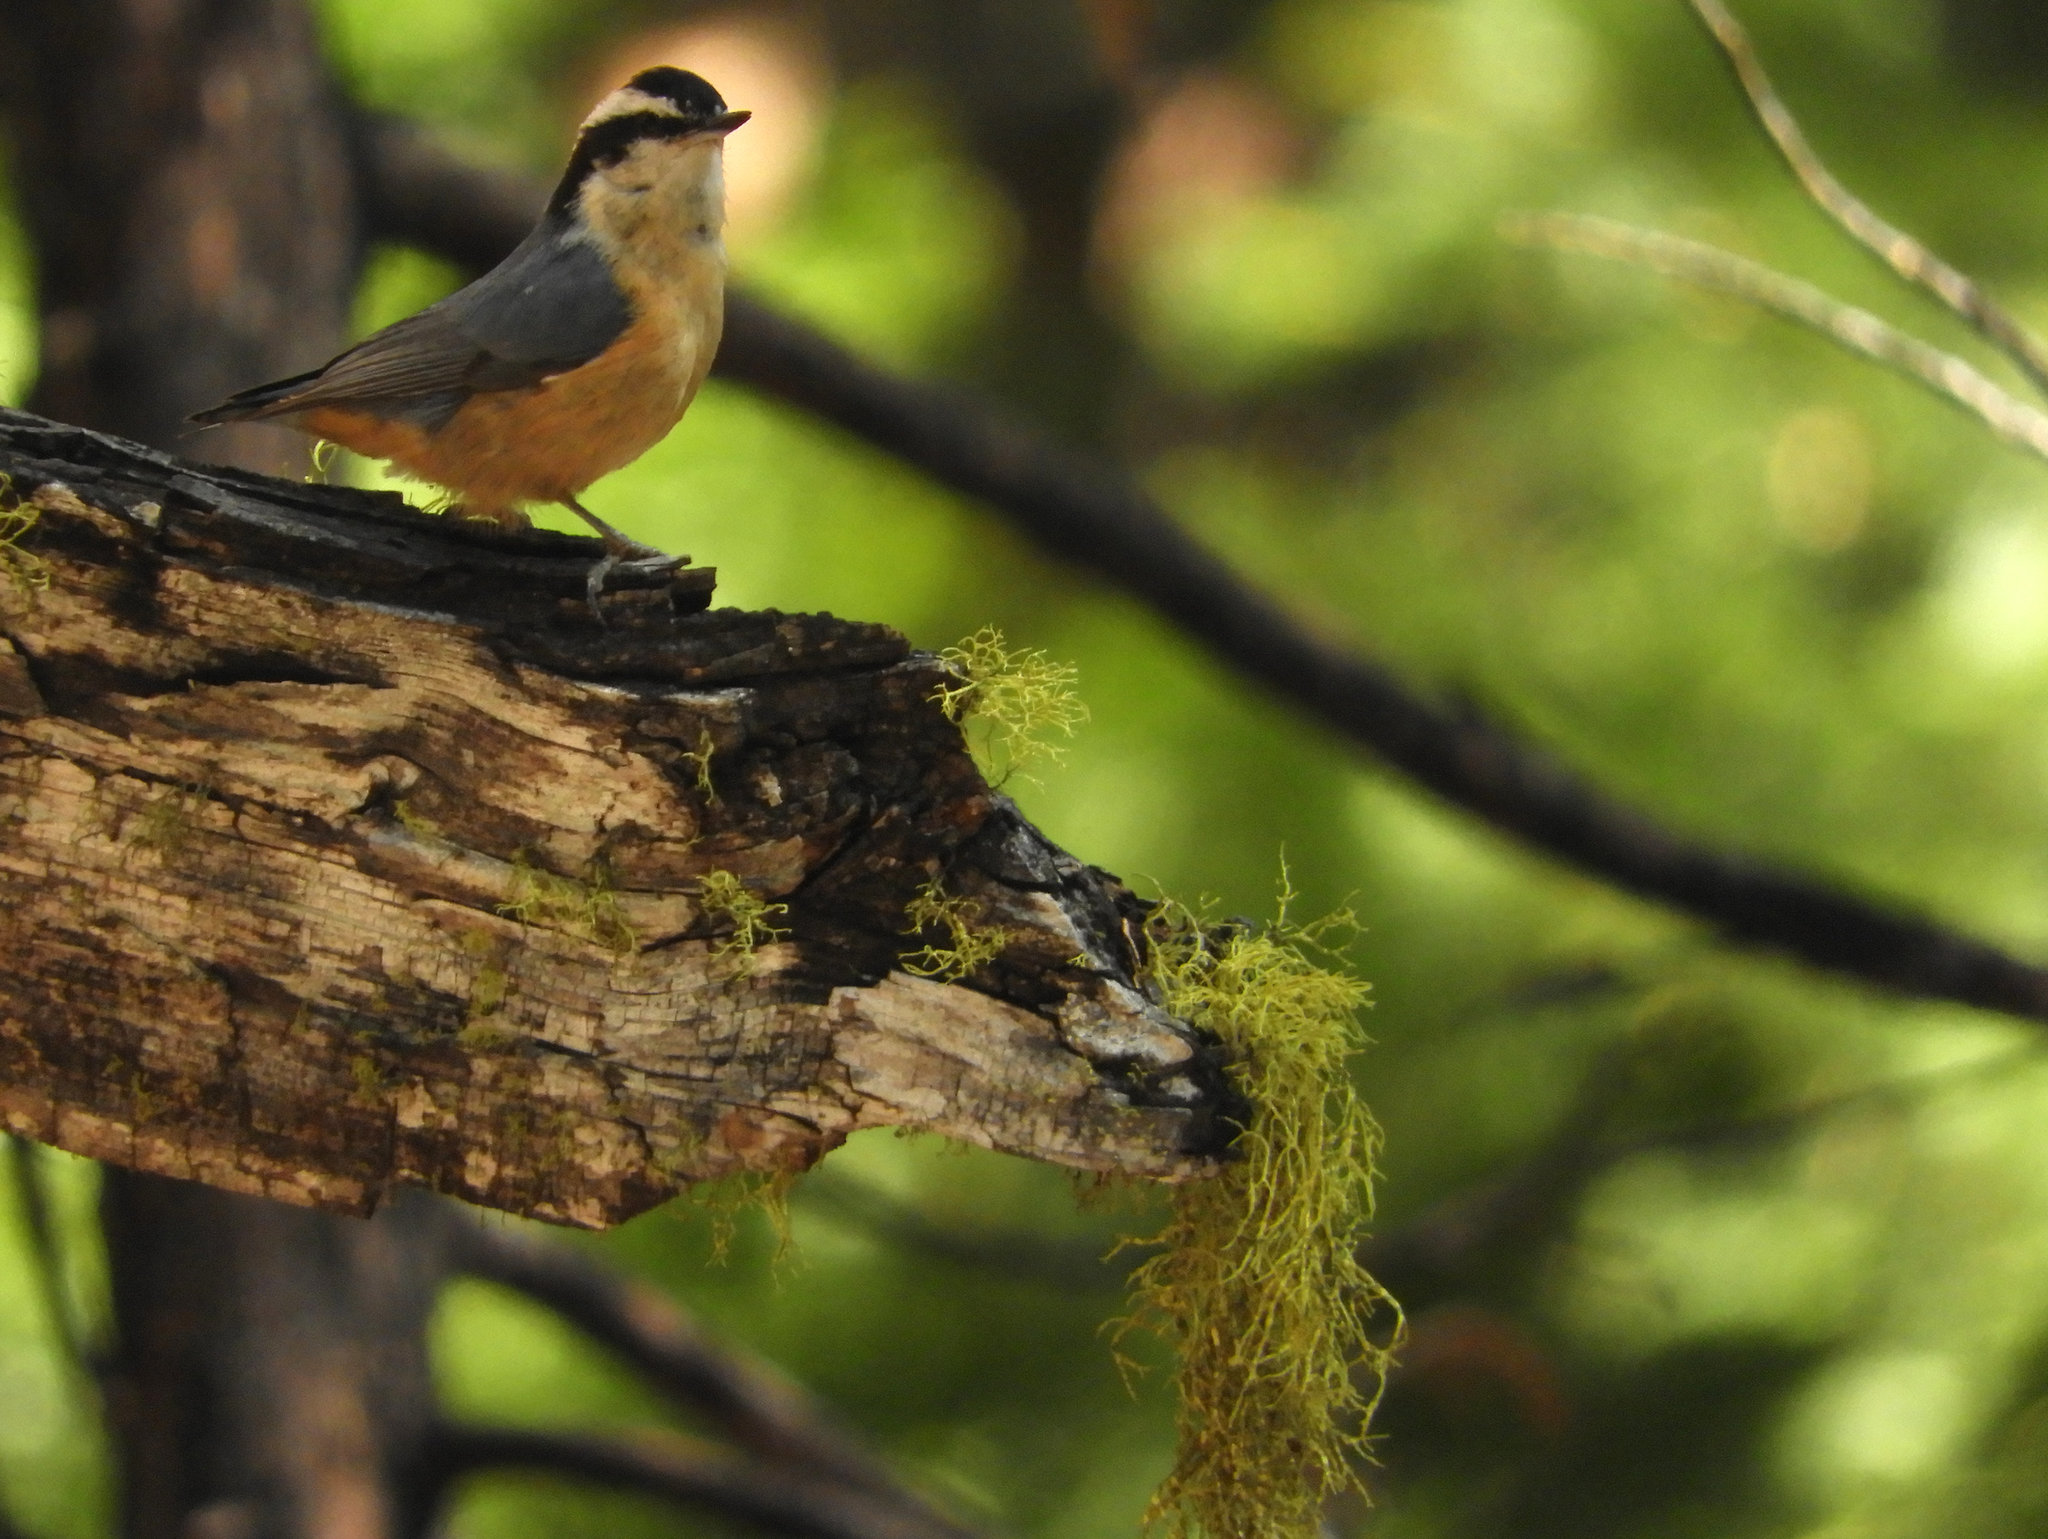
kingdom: Animalia
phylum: Chordata
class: Aves
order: Passeriformes
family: Sittidae
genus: Sitta
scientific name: Sitta canadensis
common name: Red-breasted nuthatch
